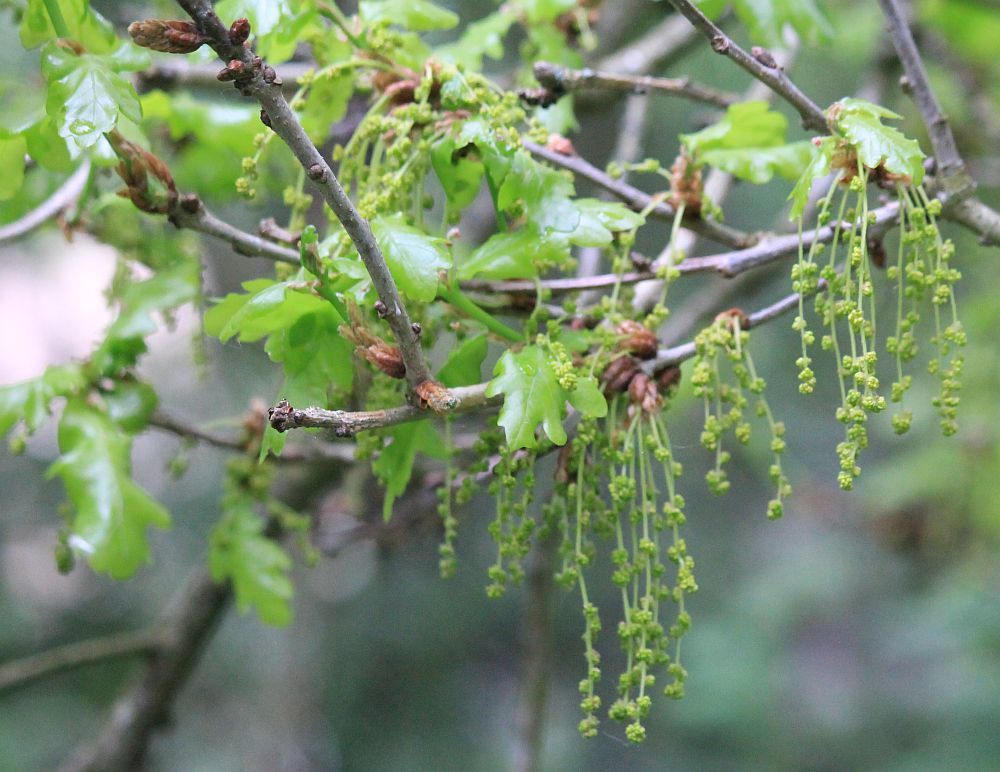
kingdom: Plantae
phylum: Tracheophyta
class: Magnoliopsida
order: Fagales
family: Fagaceae
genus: Quercus
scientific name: Quercus robur
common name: Pedunculate oak
